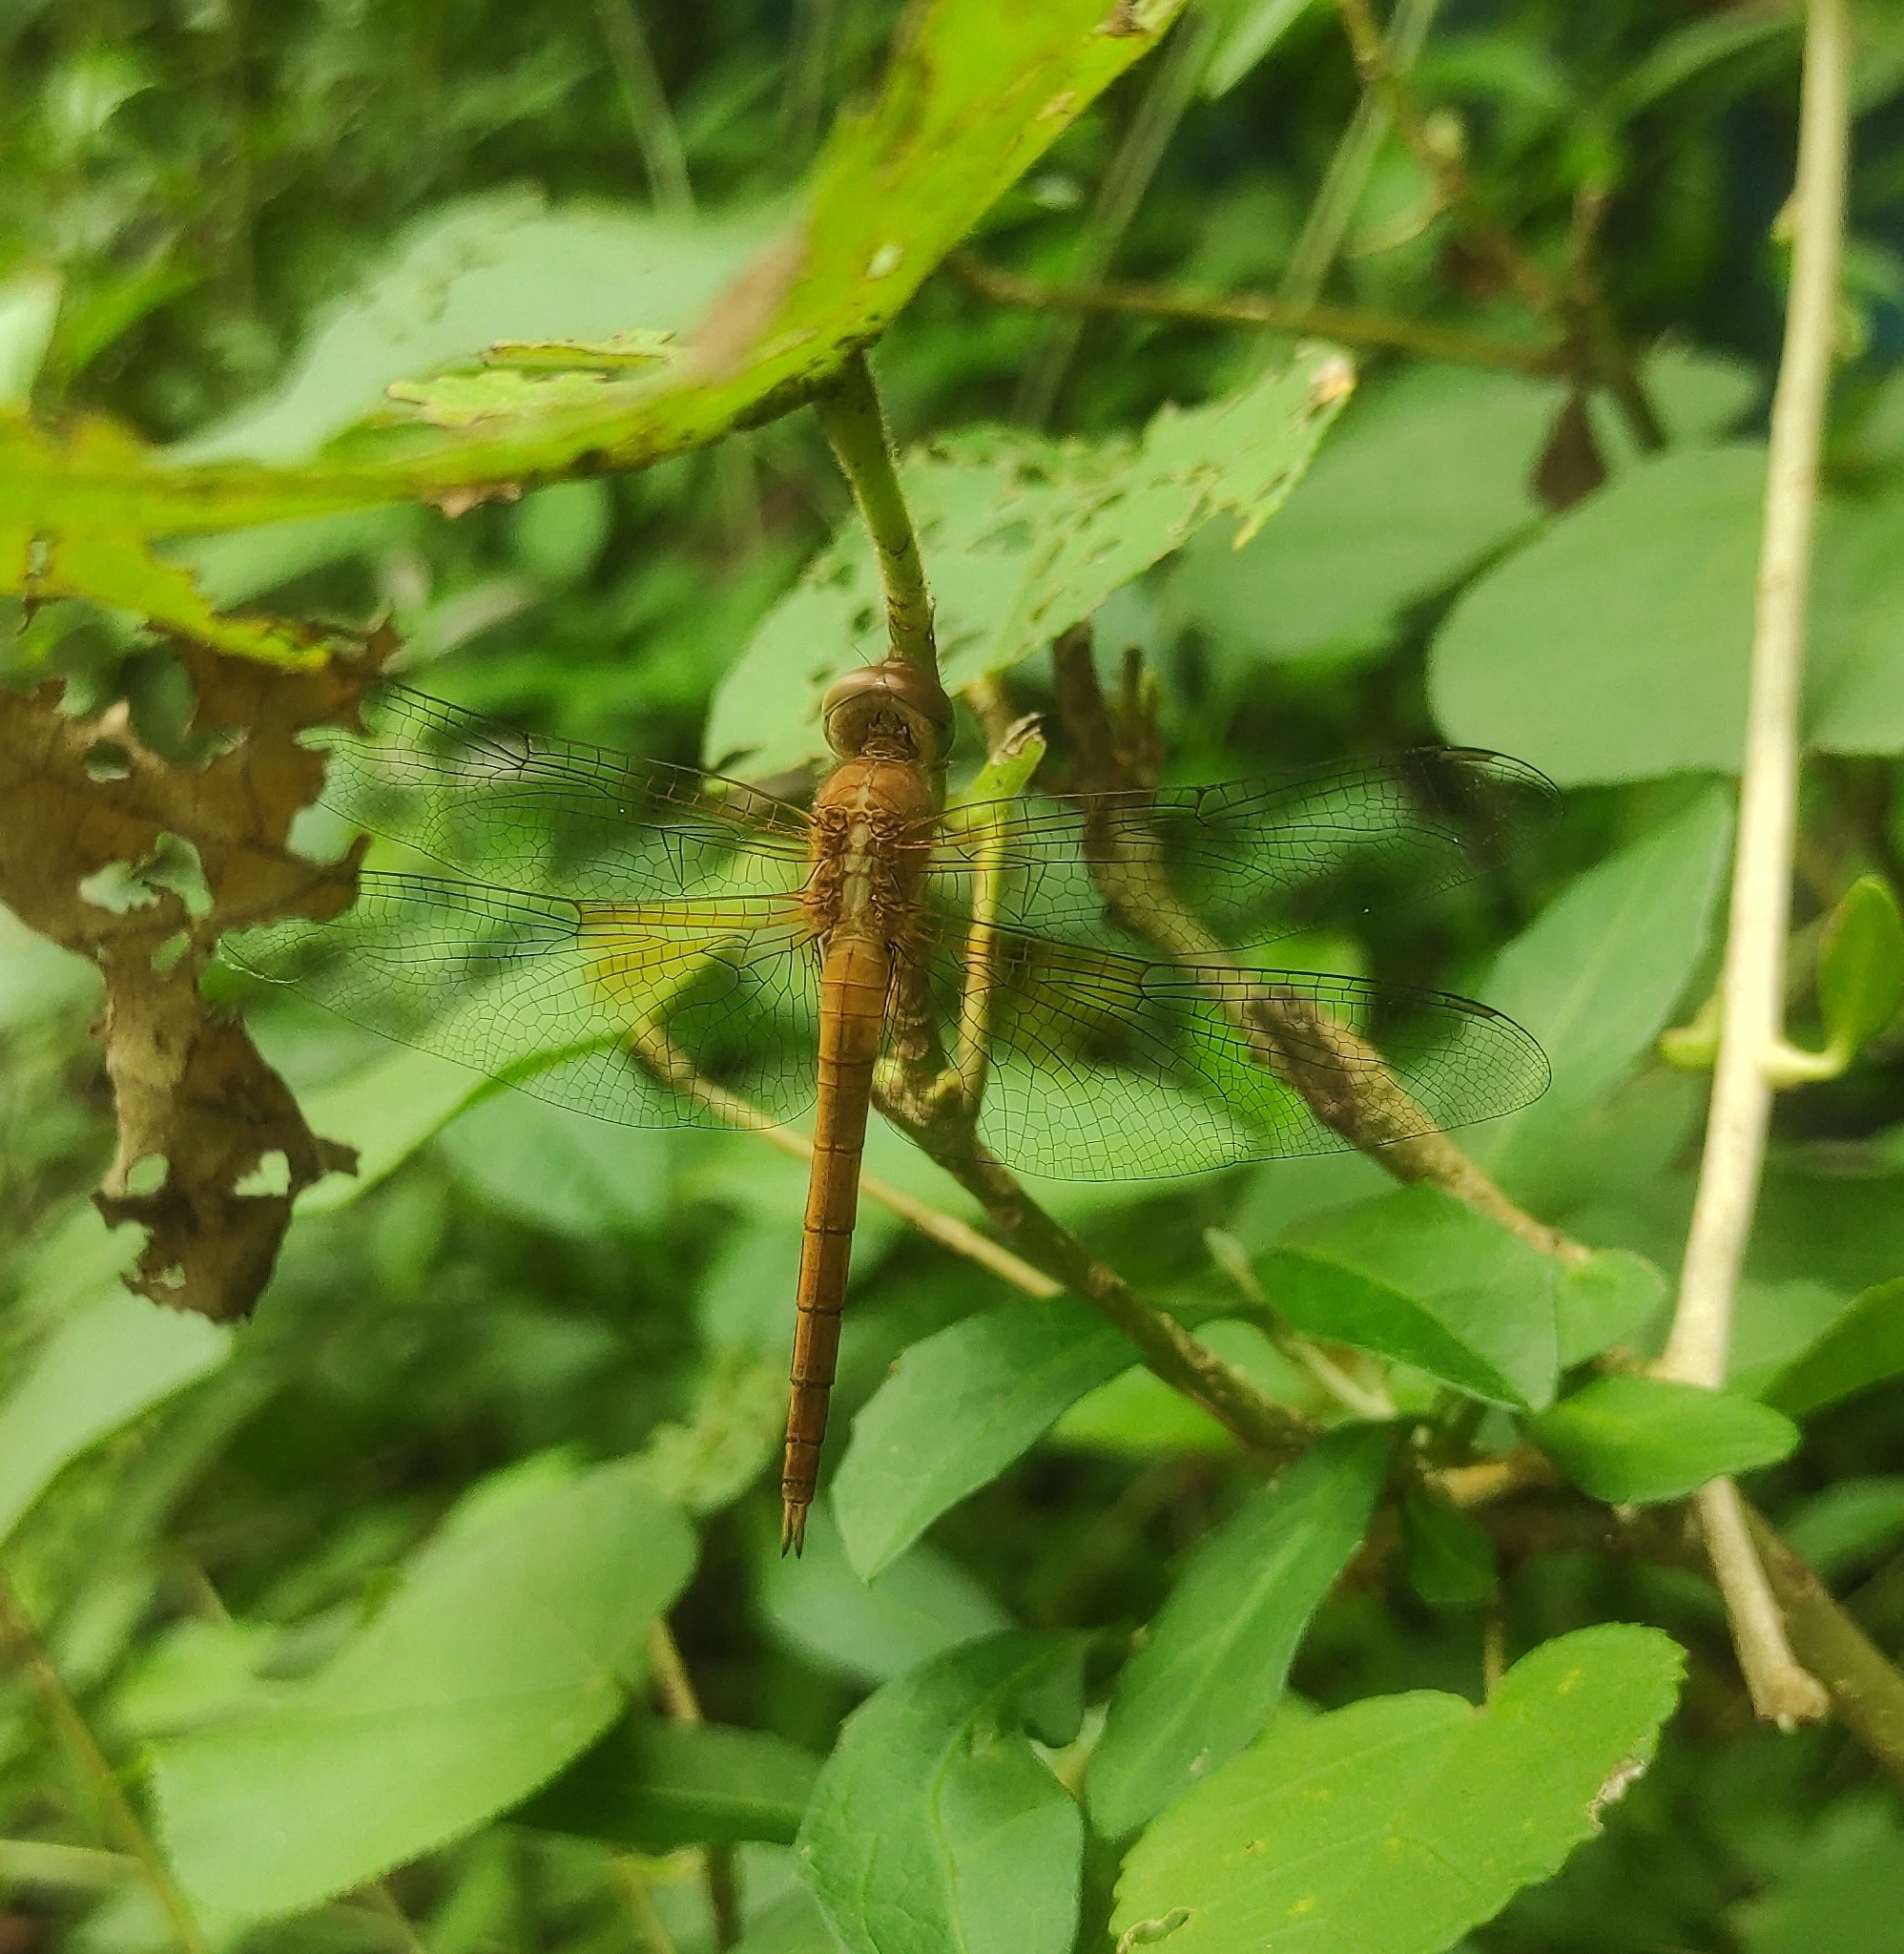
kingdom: Animalia
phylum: Arthropoda
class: Insecta
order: Odonata
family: Libellulidae
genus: Tholymis
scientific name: Tholymis tillarga
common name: Coral-tailed cloud wing
